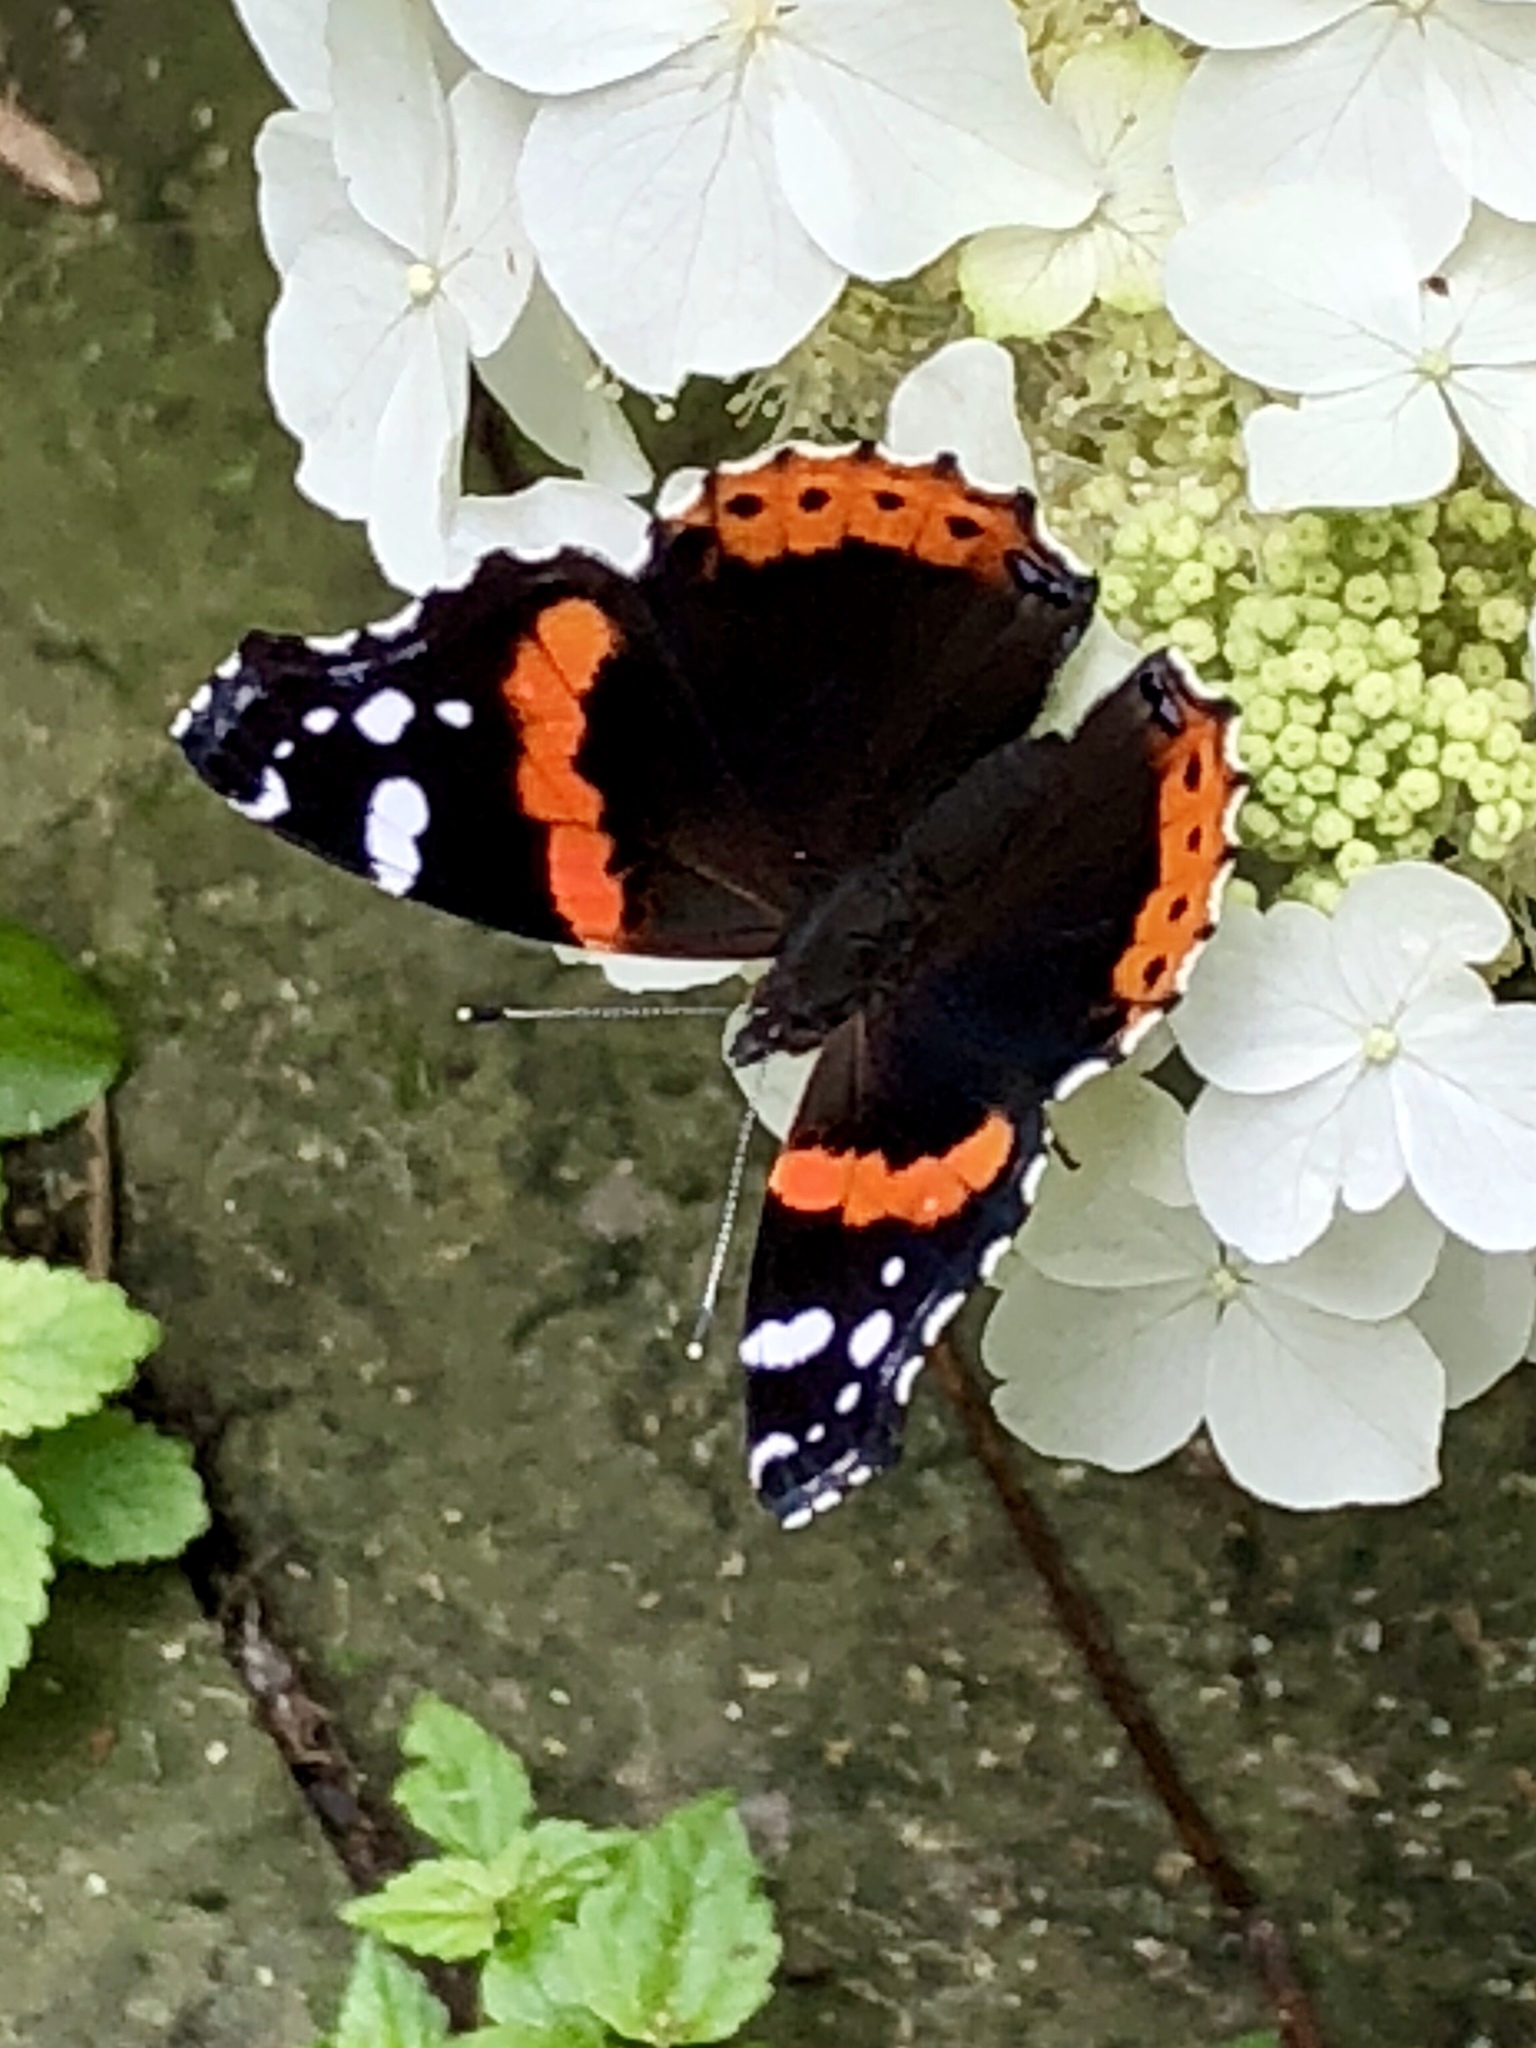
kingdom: Animalia
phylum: Arthropoda
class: Insecta
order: Lepidoptera
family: Nymphalidae
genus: Vanessa
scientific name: Vanessa atalanta
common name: Red admiral
